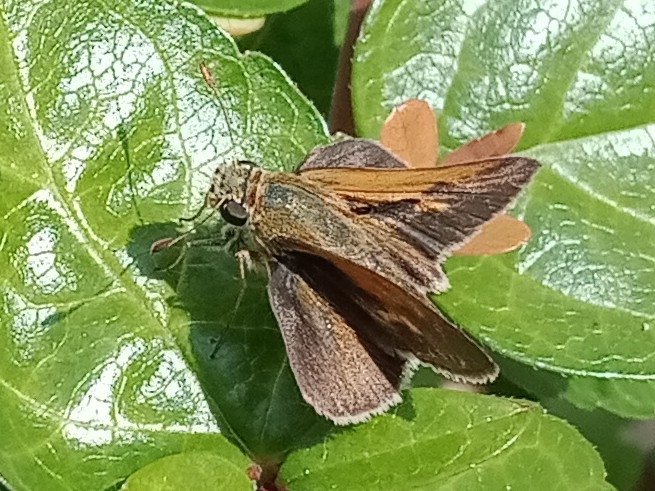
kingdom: Animalia
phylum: Arthropoda
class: Insecta
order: Lepidoptera
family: Hesperiidae
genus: Polites
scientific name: Polites themistocles
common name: Tawny-edged skipper
